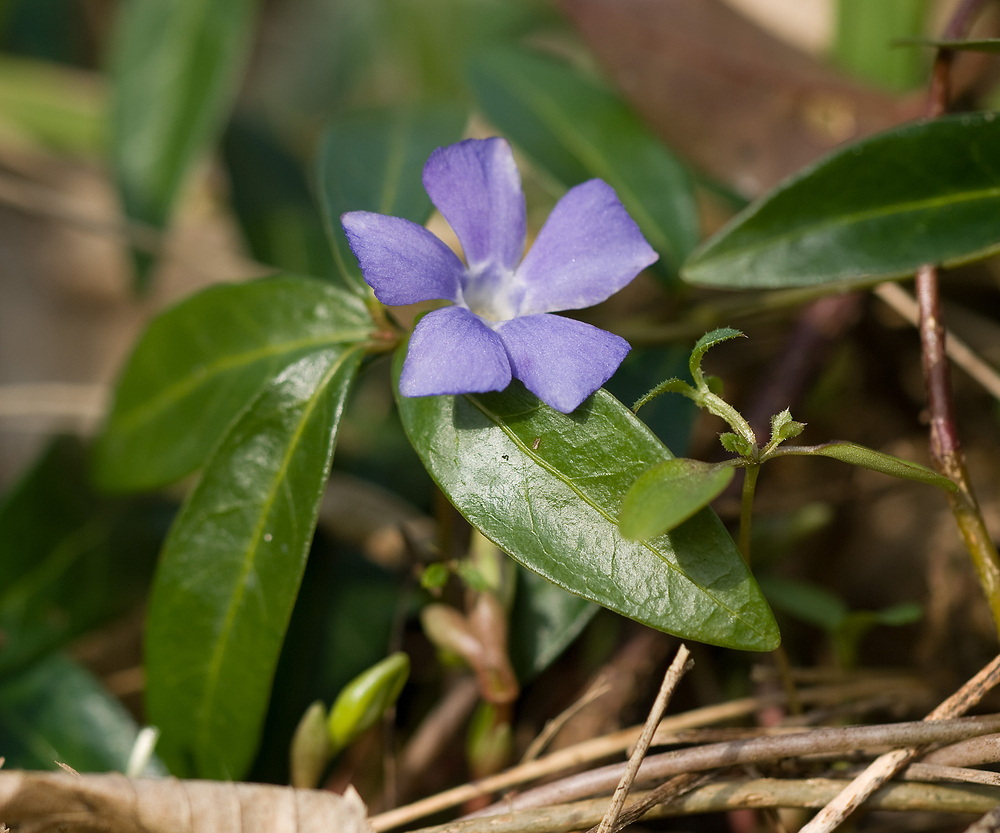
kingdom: Plantae
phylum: Tracheophyta
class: Magnoliopsida
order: Gentianales
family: Apocynaceae
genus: Vinca
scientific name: Vinca minor
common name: Lesser periwinkle
